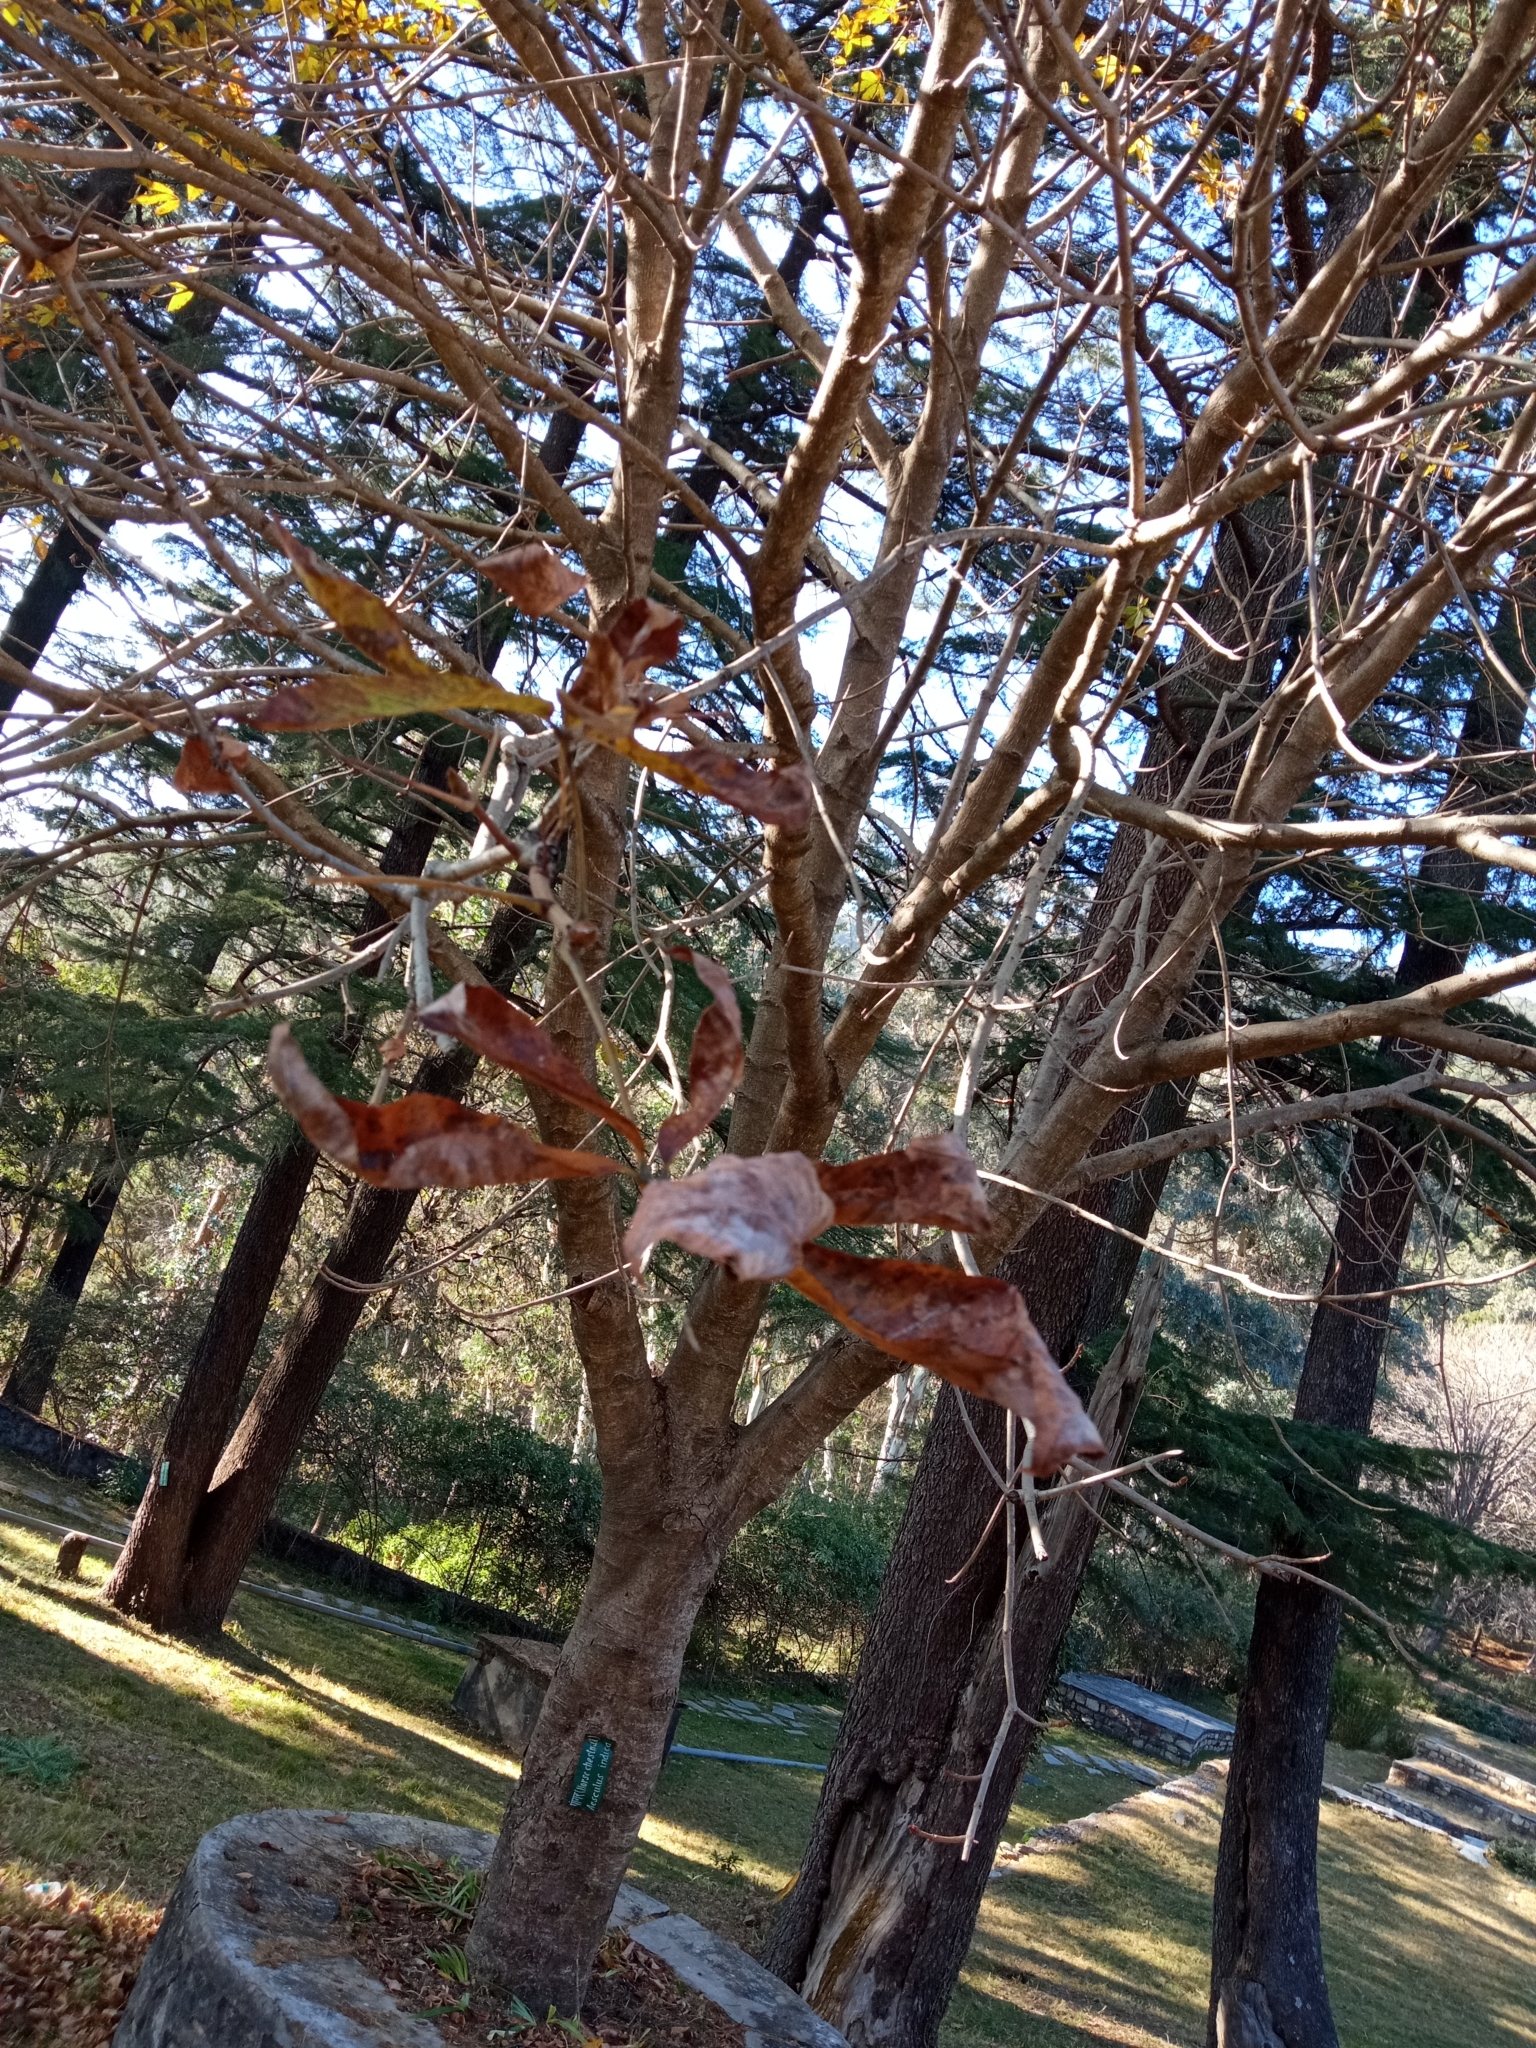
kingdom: Plantae
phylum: Tracheophyta
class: Magnoliopsida
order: Sapindales
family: Sapindaceae
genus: Aesculus
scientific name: Aesculus indica
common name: Indian horse-chestnut
